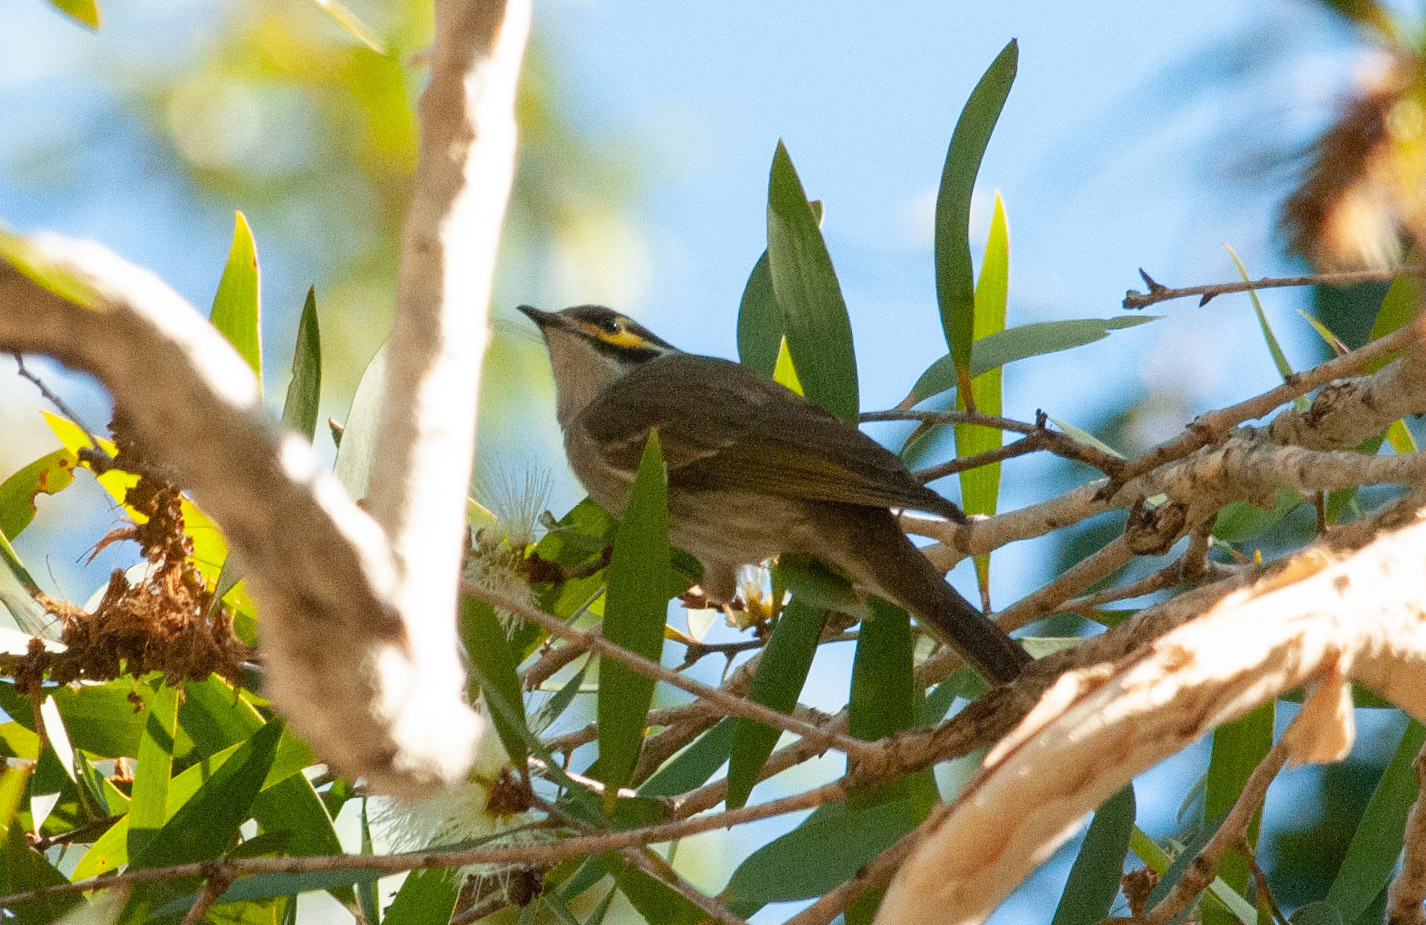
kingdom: Animalia
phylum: Chordata
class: Aves
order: Passeriformes
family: Meliphagidae
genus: Caligavis
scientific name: Caligavis chrysops
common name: Yellow-faced honeyeater
